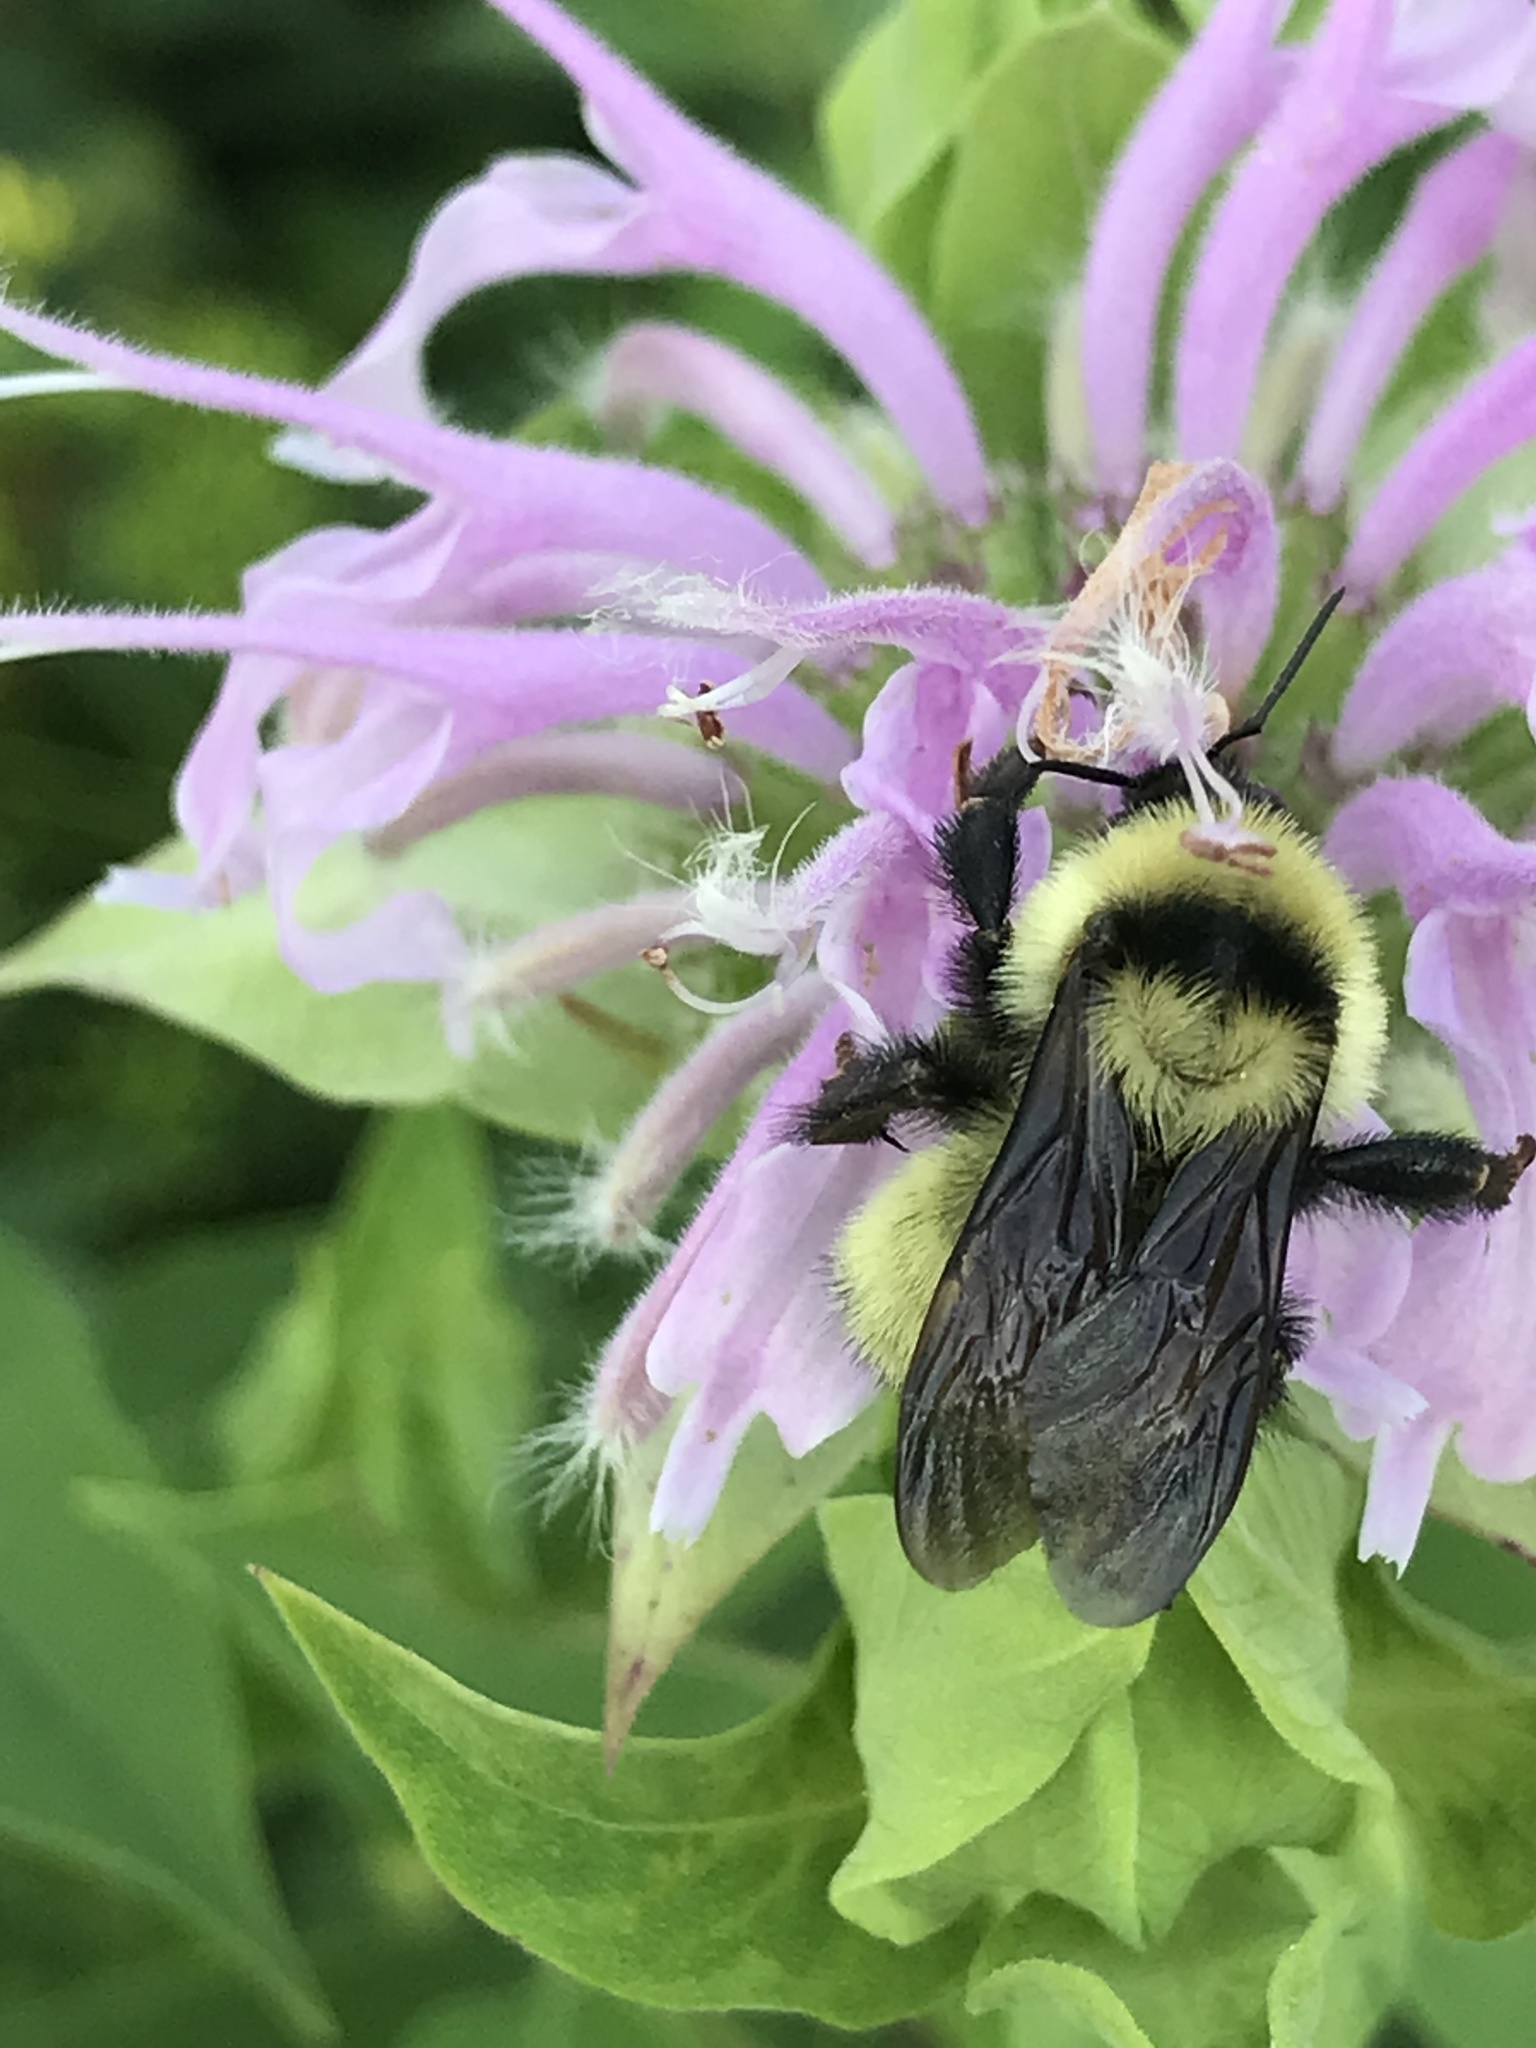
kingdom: Animalia
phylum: Arthropoda
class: Insecta
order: Hymenoptera
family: Apidae
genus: Bombus
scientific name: Bombus fervidus
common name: Yellow bumble bee
